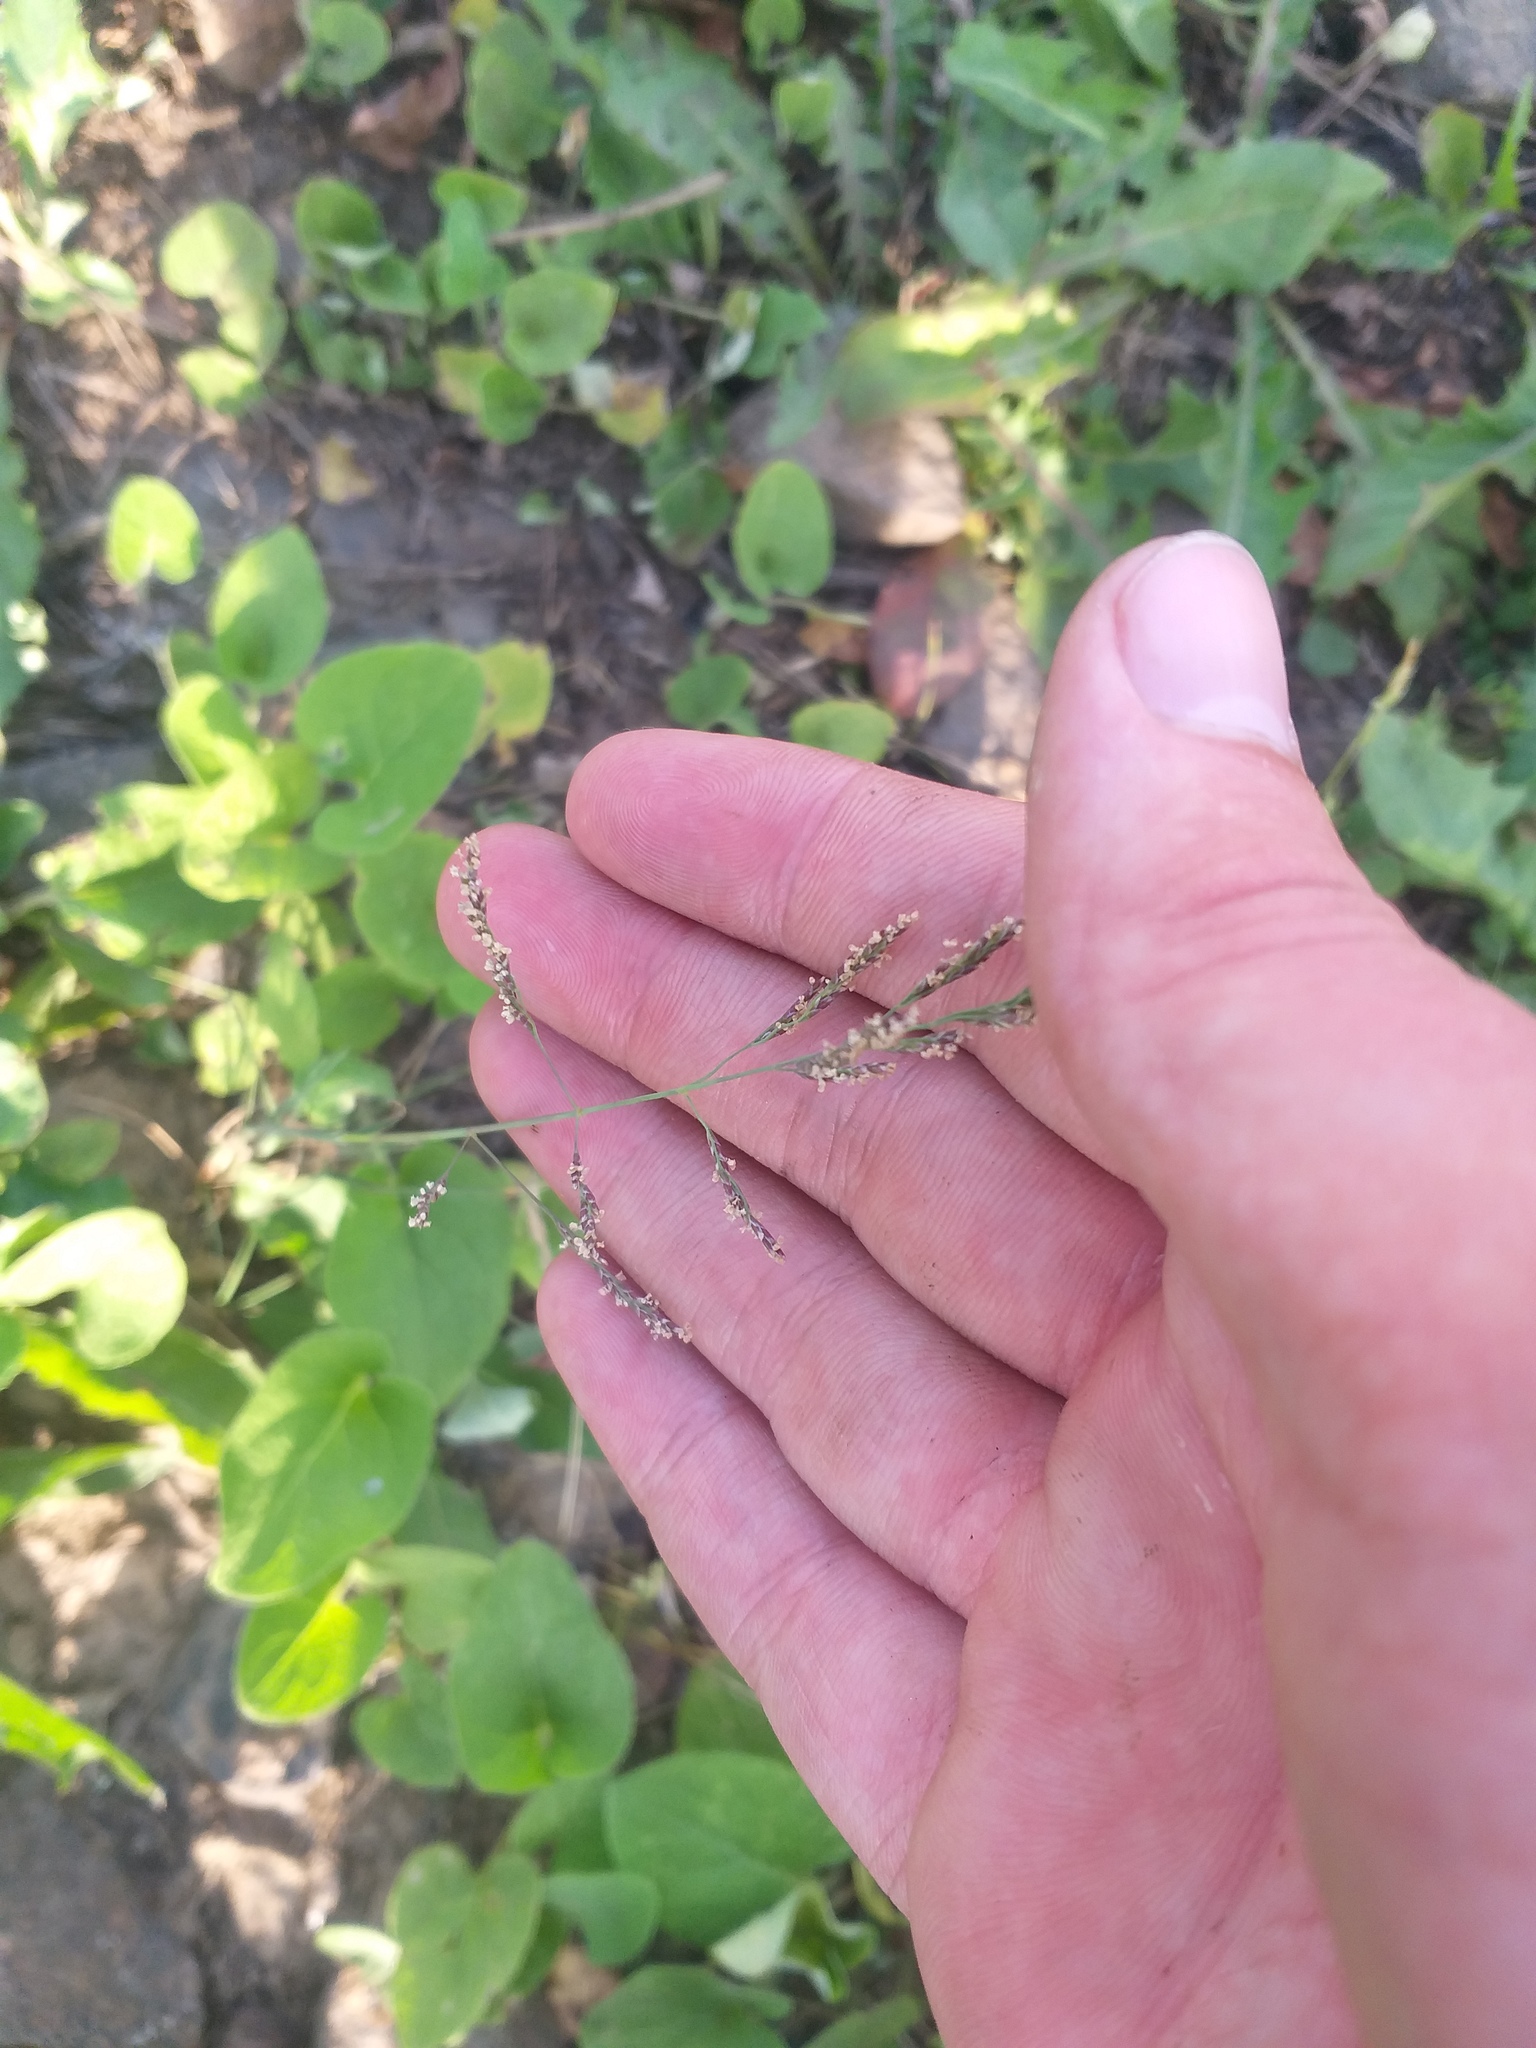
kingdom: Plantae
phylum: Tracheophyta
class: Liliopsida
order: Poales
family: Poaceae
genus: Puccinellia
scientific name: Puccinellia distans
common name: Weeping alkaligrass
